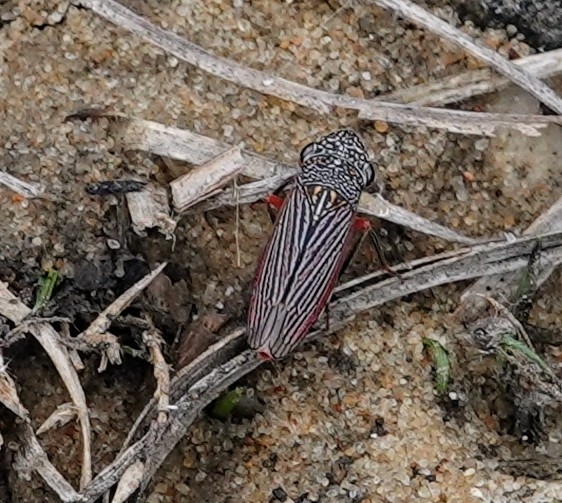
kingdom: Animalia
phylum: Arthropoda
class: Insecta
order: Hemiptera
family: Cicadellidae
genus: Cuerna
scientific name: Cuerna costalis
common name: Lateral-lined sharpshooter
